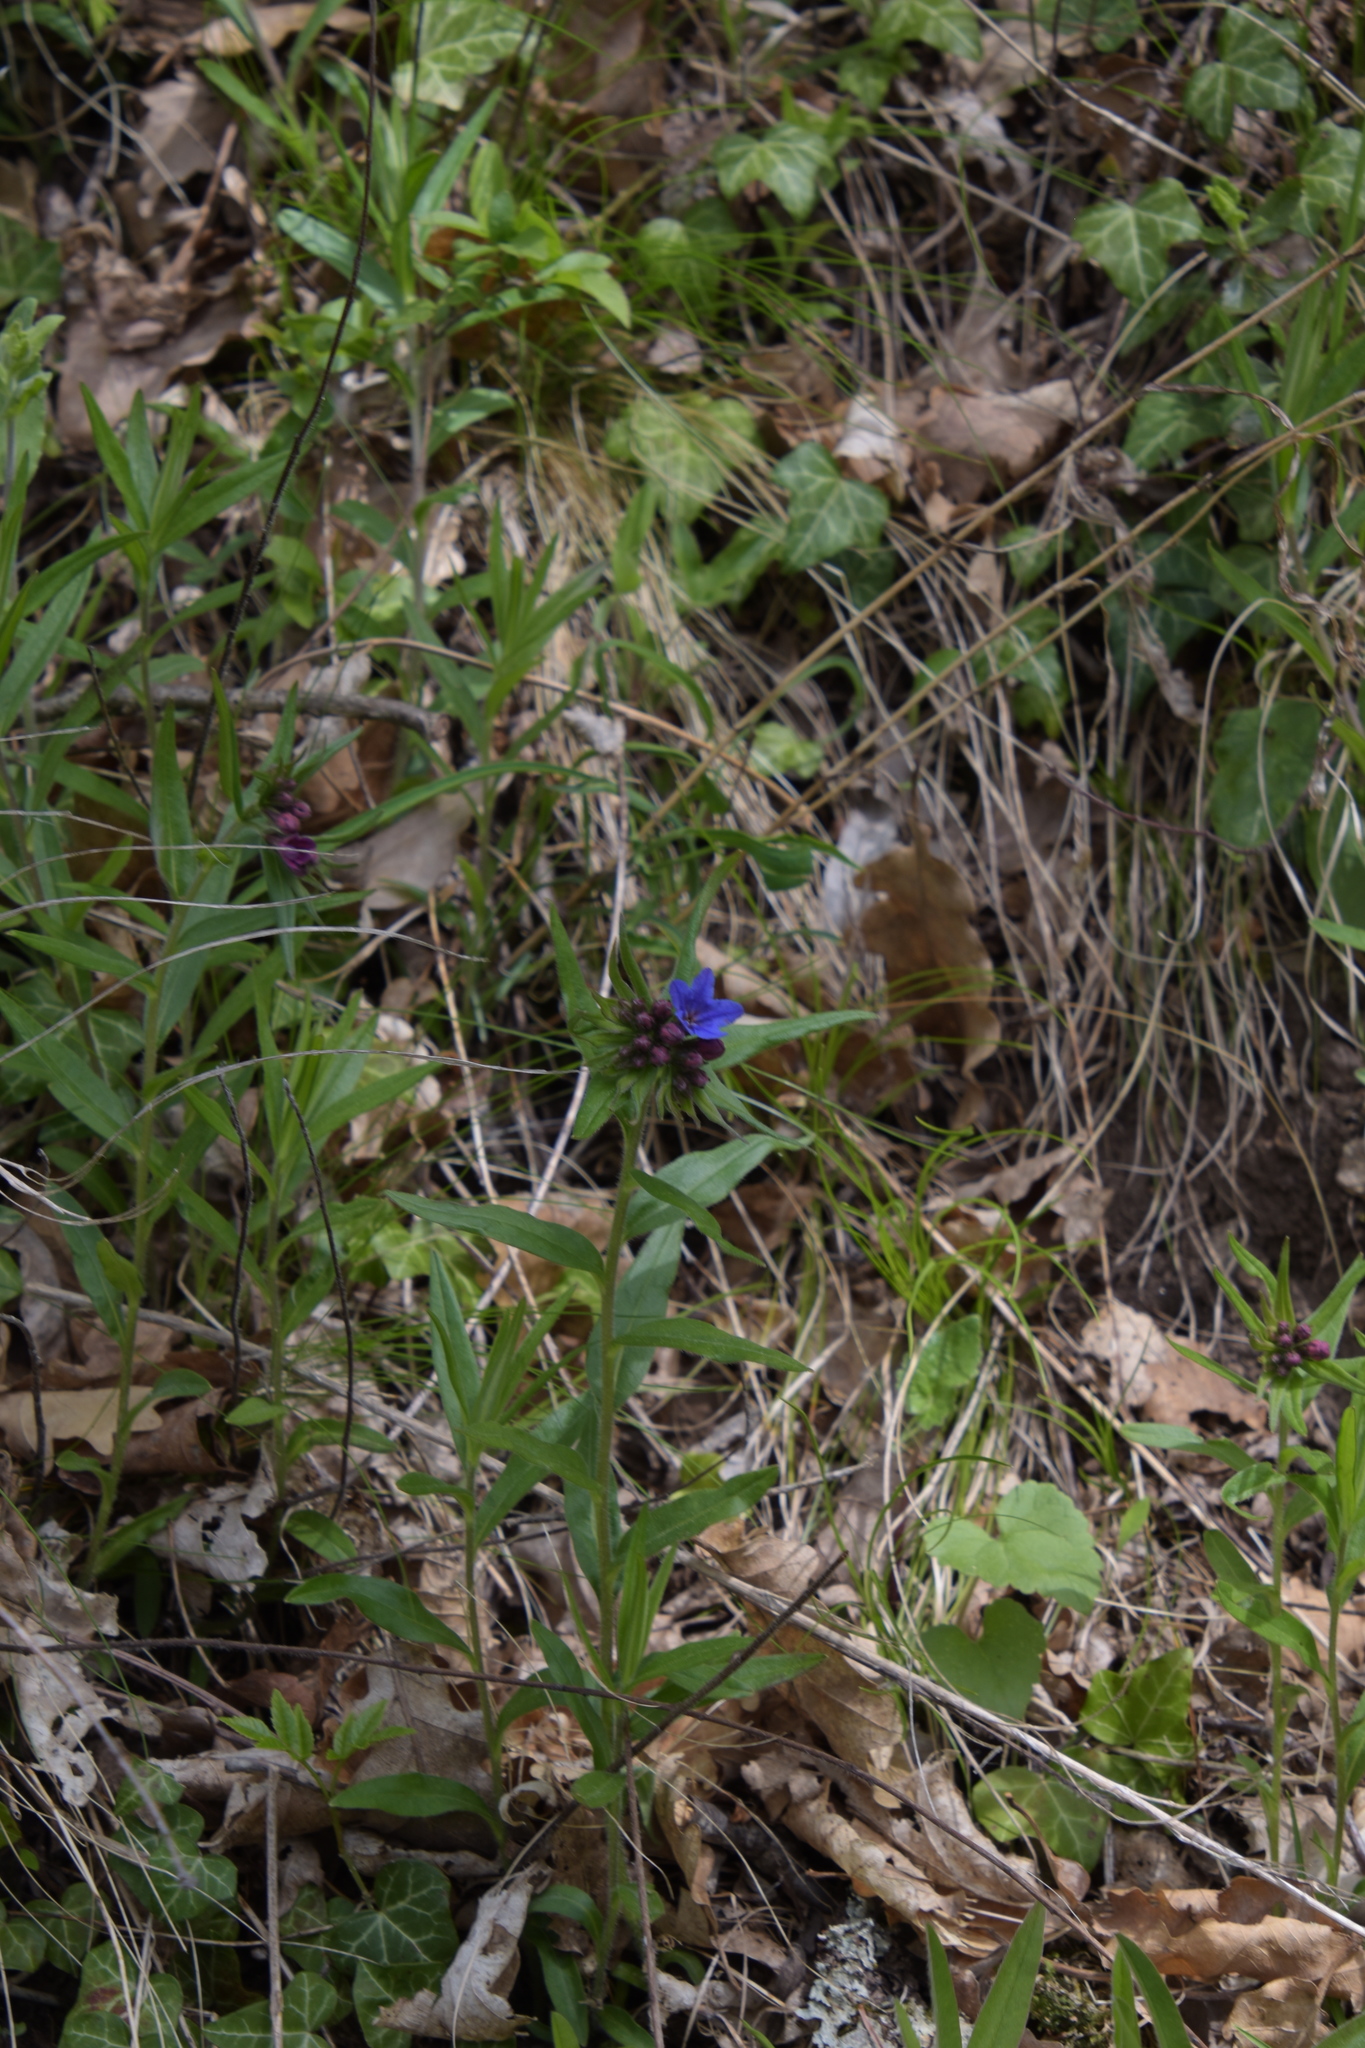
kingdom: Plantae
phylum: Tracheophyta
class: Magnoliopsida
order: Boraginales
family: Boraginaceae
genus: Aegonychon
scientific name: Aegonychon purpurocaeruleum
